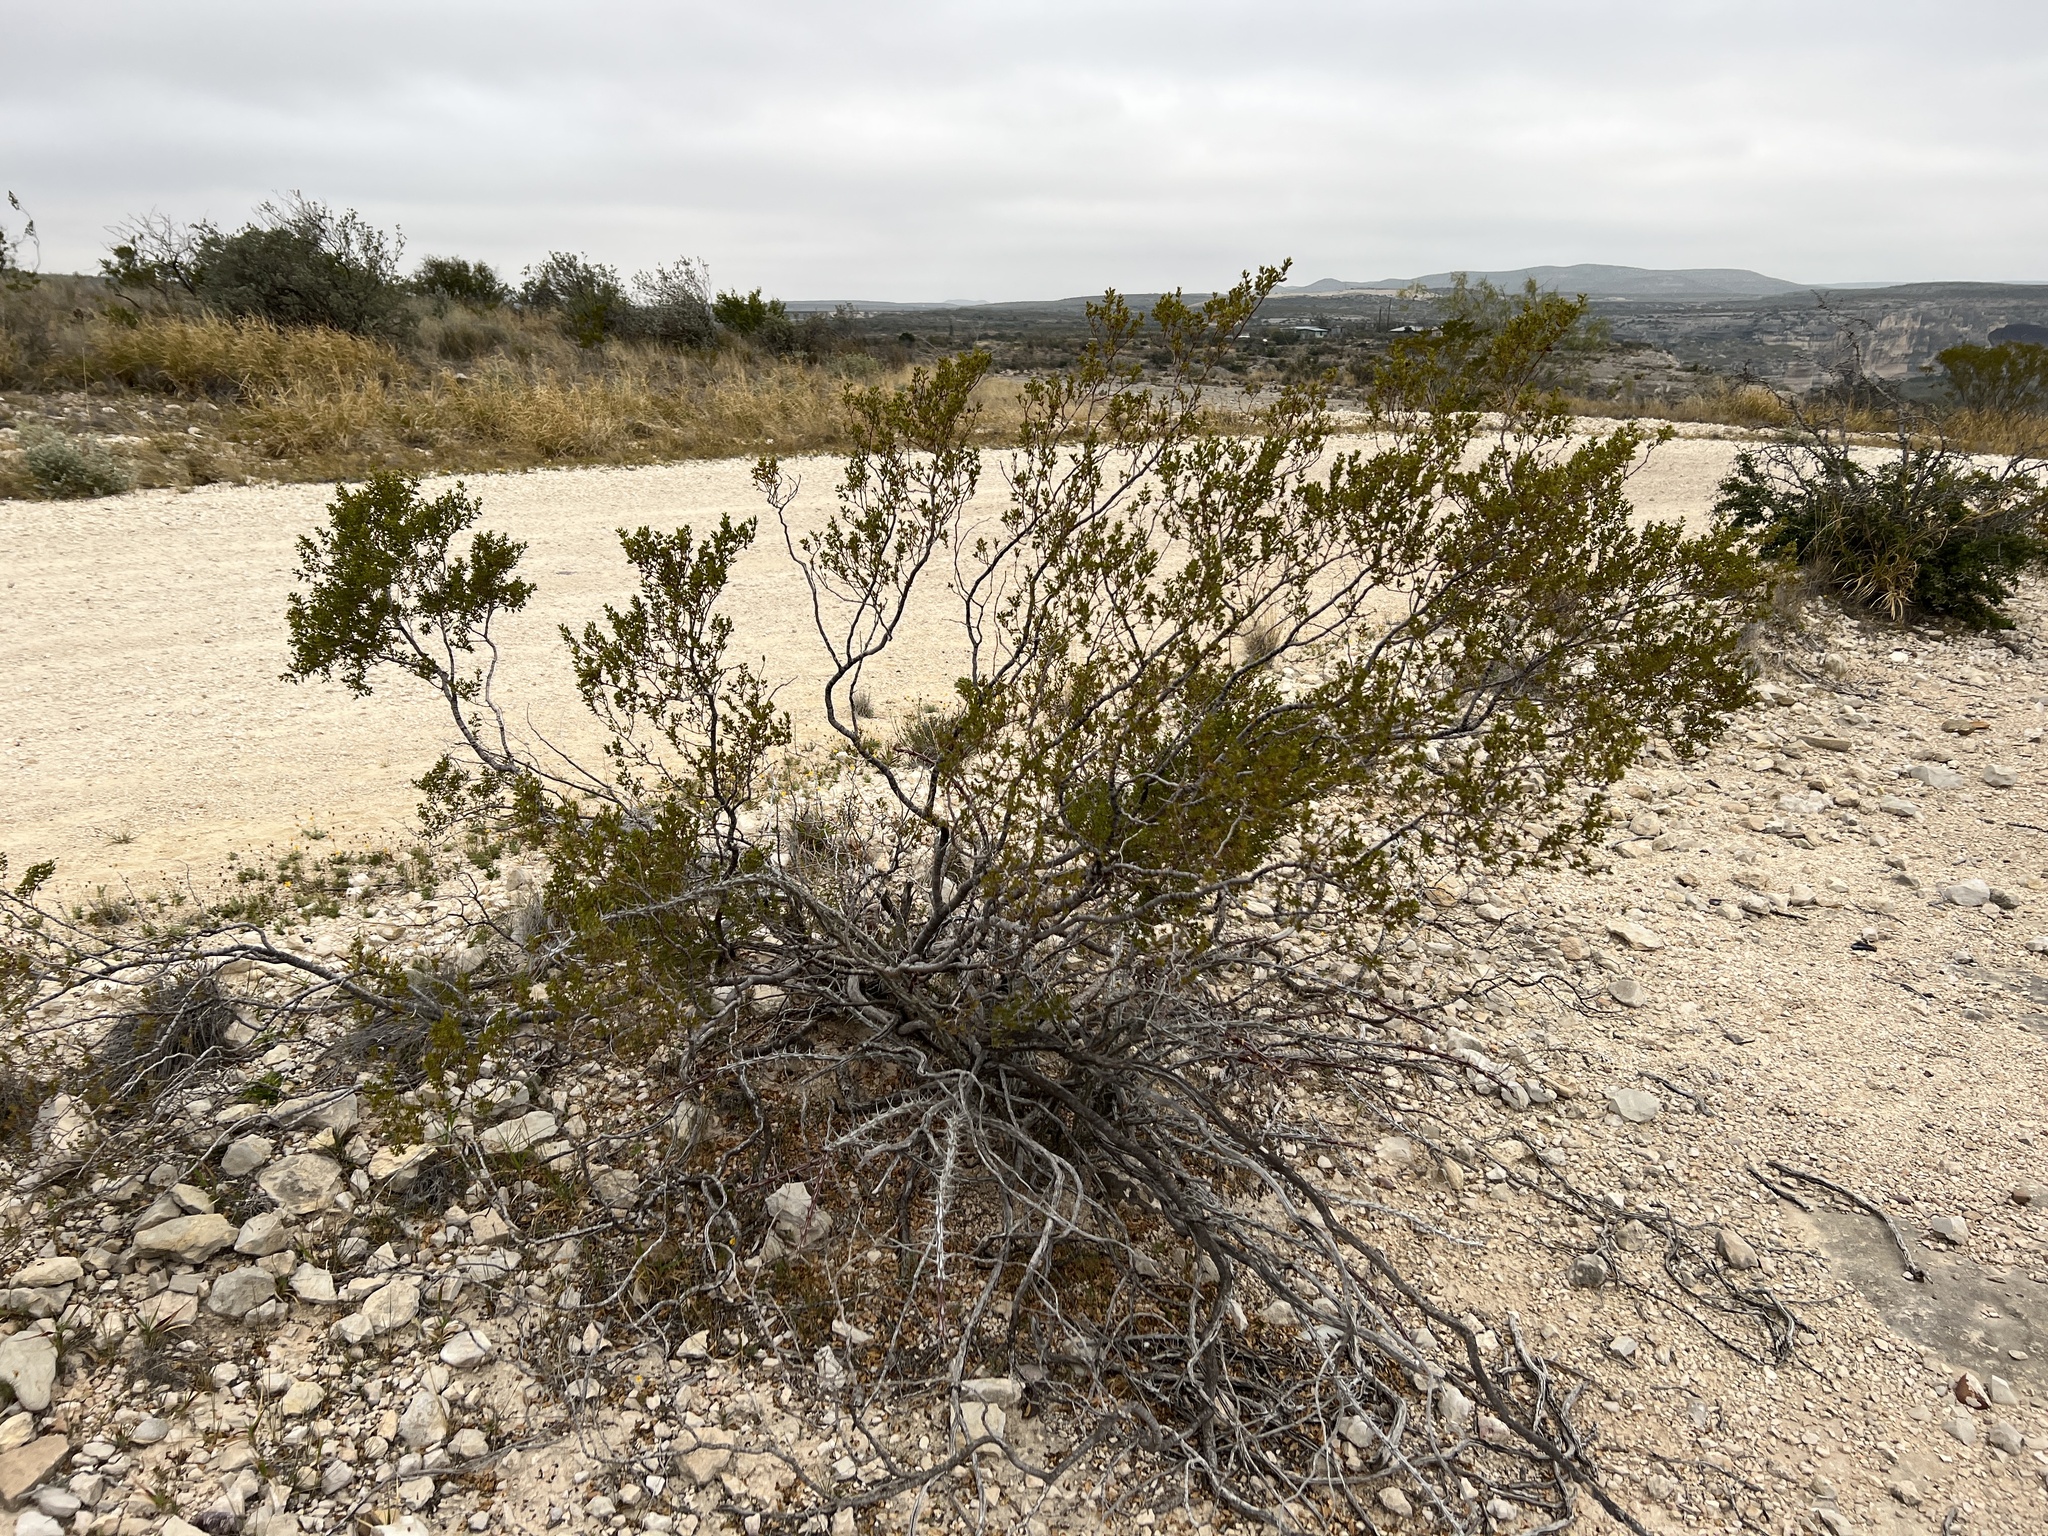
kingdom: Plantae
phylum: Tracheophyta
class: Magnoliopsida
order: Zygophyllales
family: Zygophyllaceae
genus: Larrea
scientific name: Larrea tridentata
